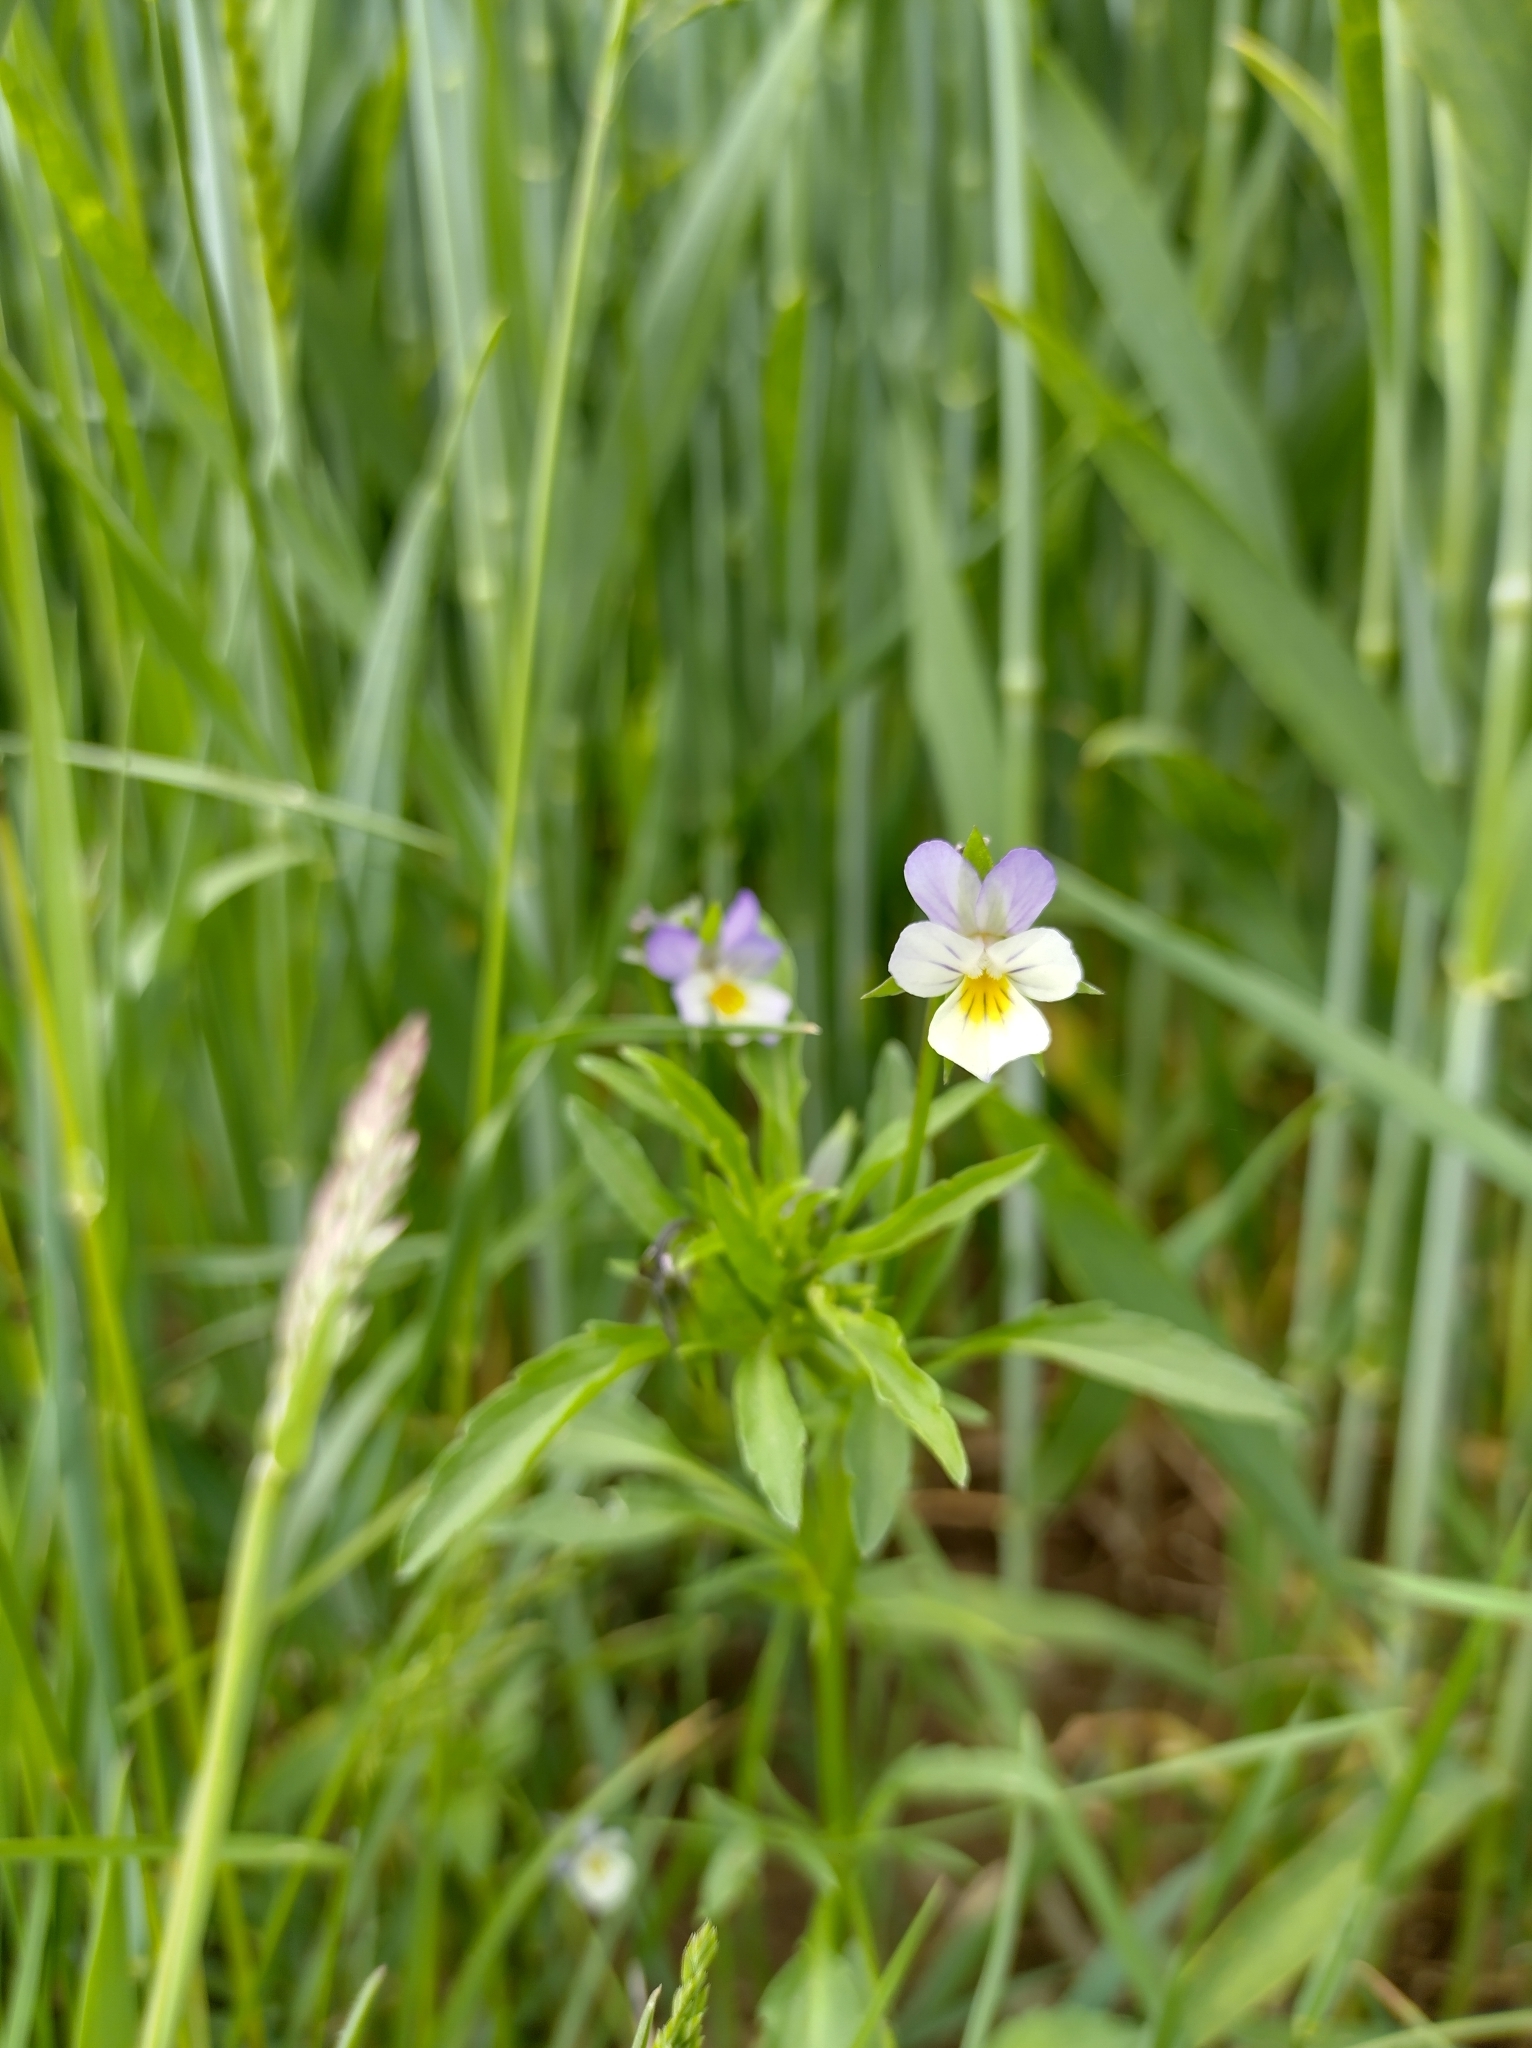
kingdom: Plantae
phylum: Tracheophyta
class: Magnoliopsida
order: Malpighiales
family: Violaceae
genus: Viola
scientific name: Viola arvensis
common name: Field pansy
